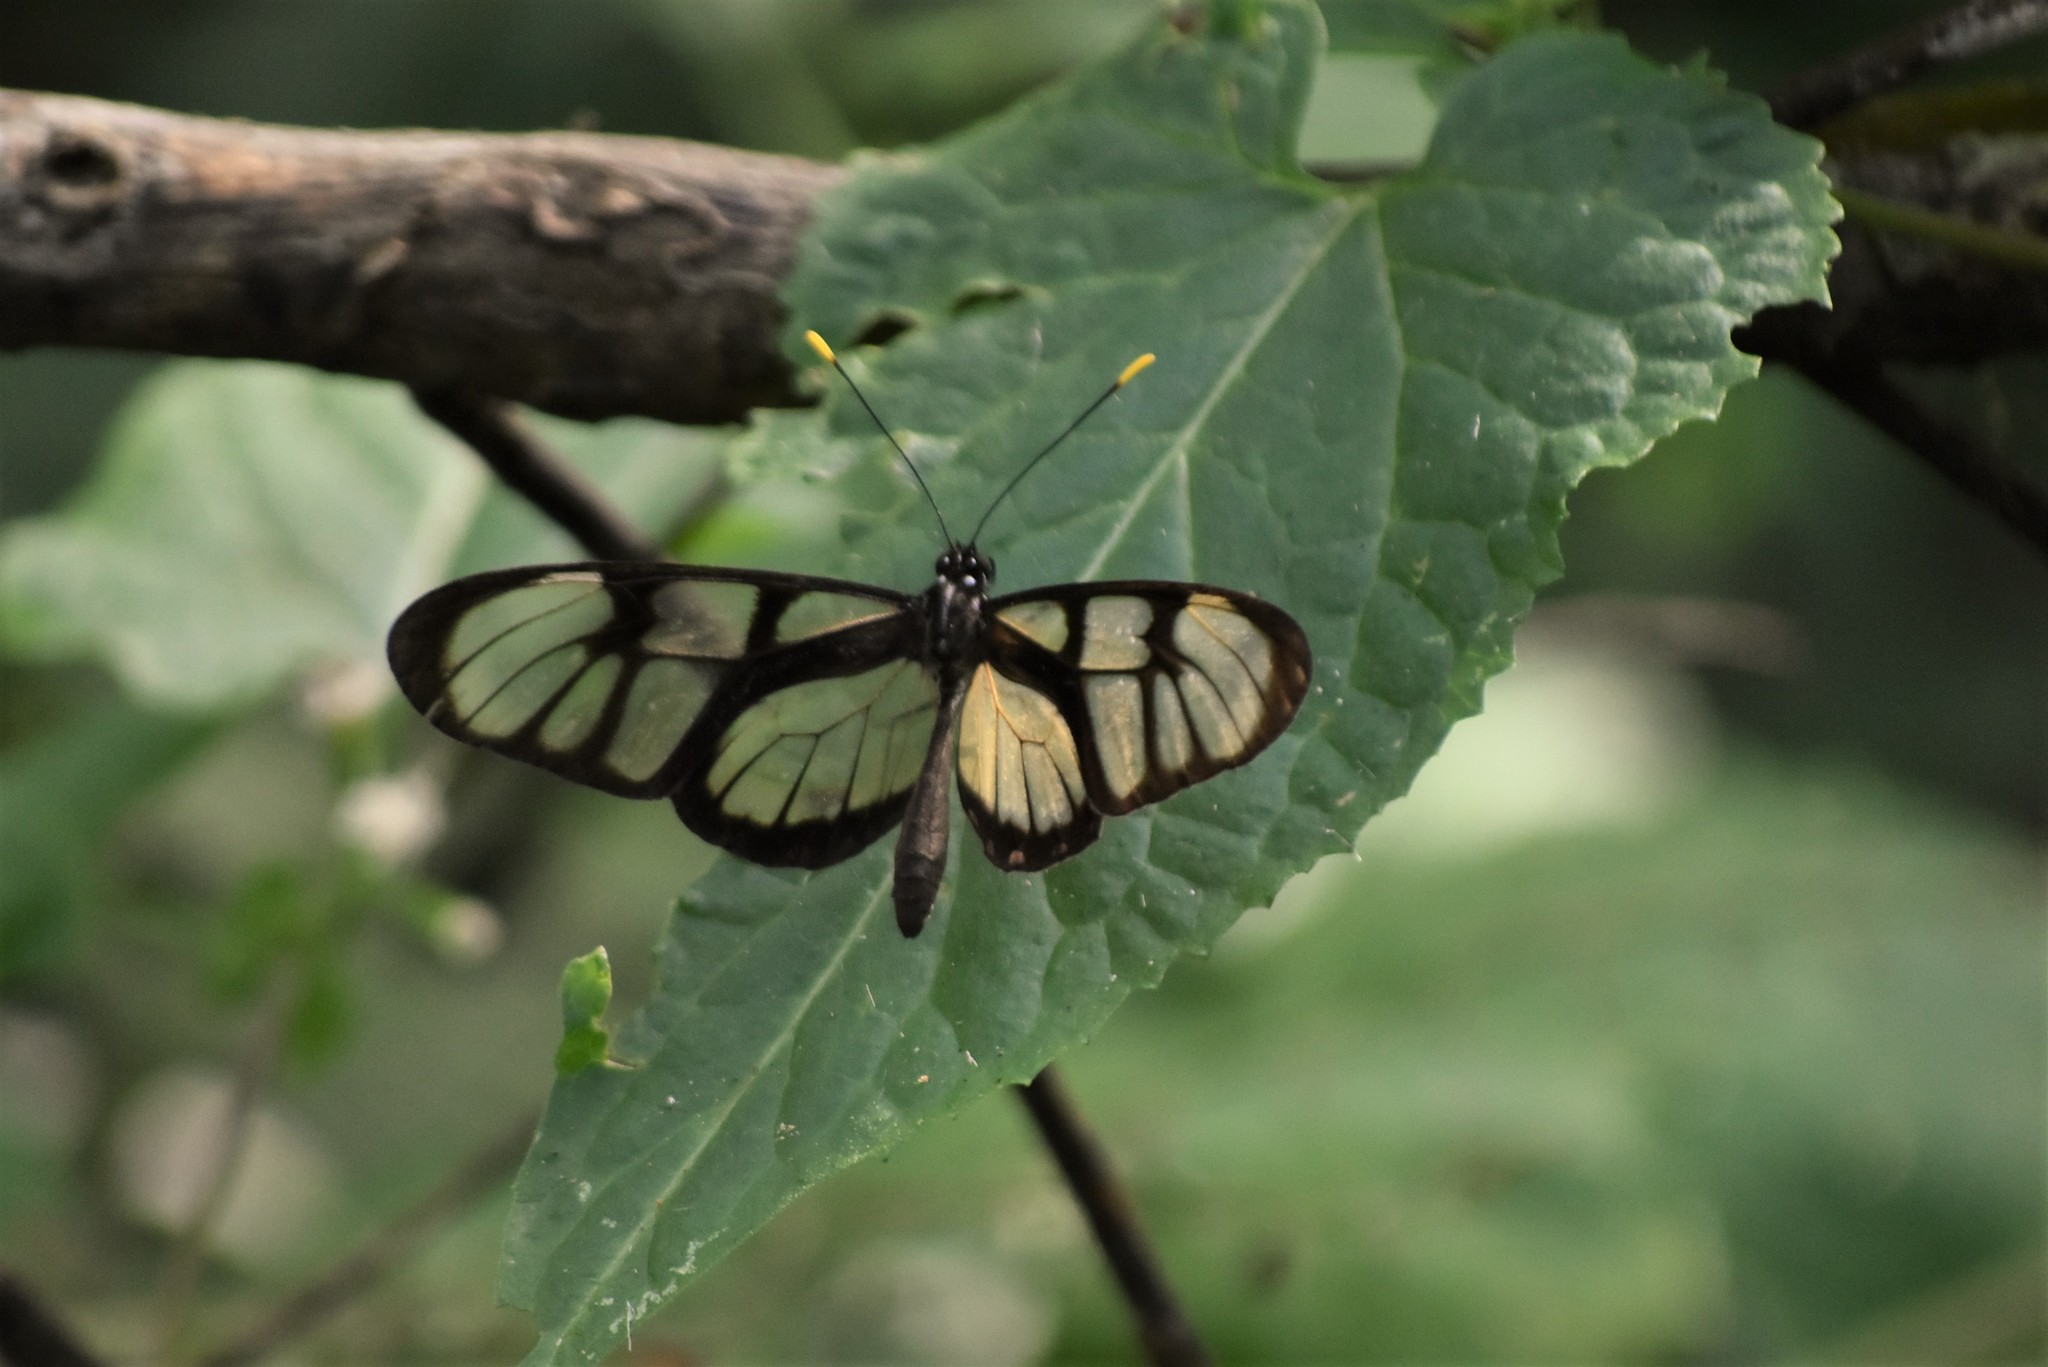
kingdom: Animalia
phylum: Arthropoda
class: Insecta
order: Lepidoptera
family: Nymphalidae
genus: Dircenna
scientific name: Dircenna dero
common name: Dero clearwing
